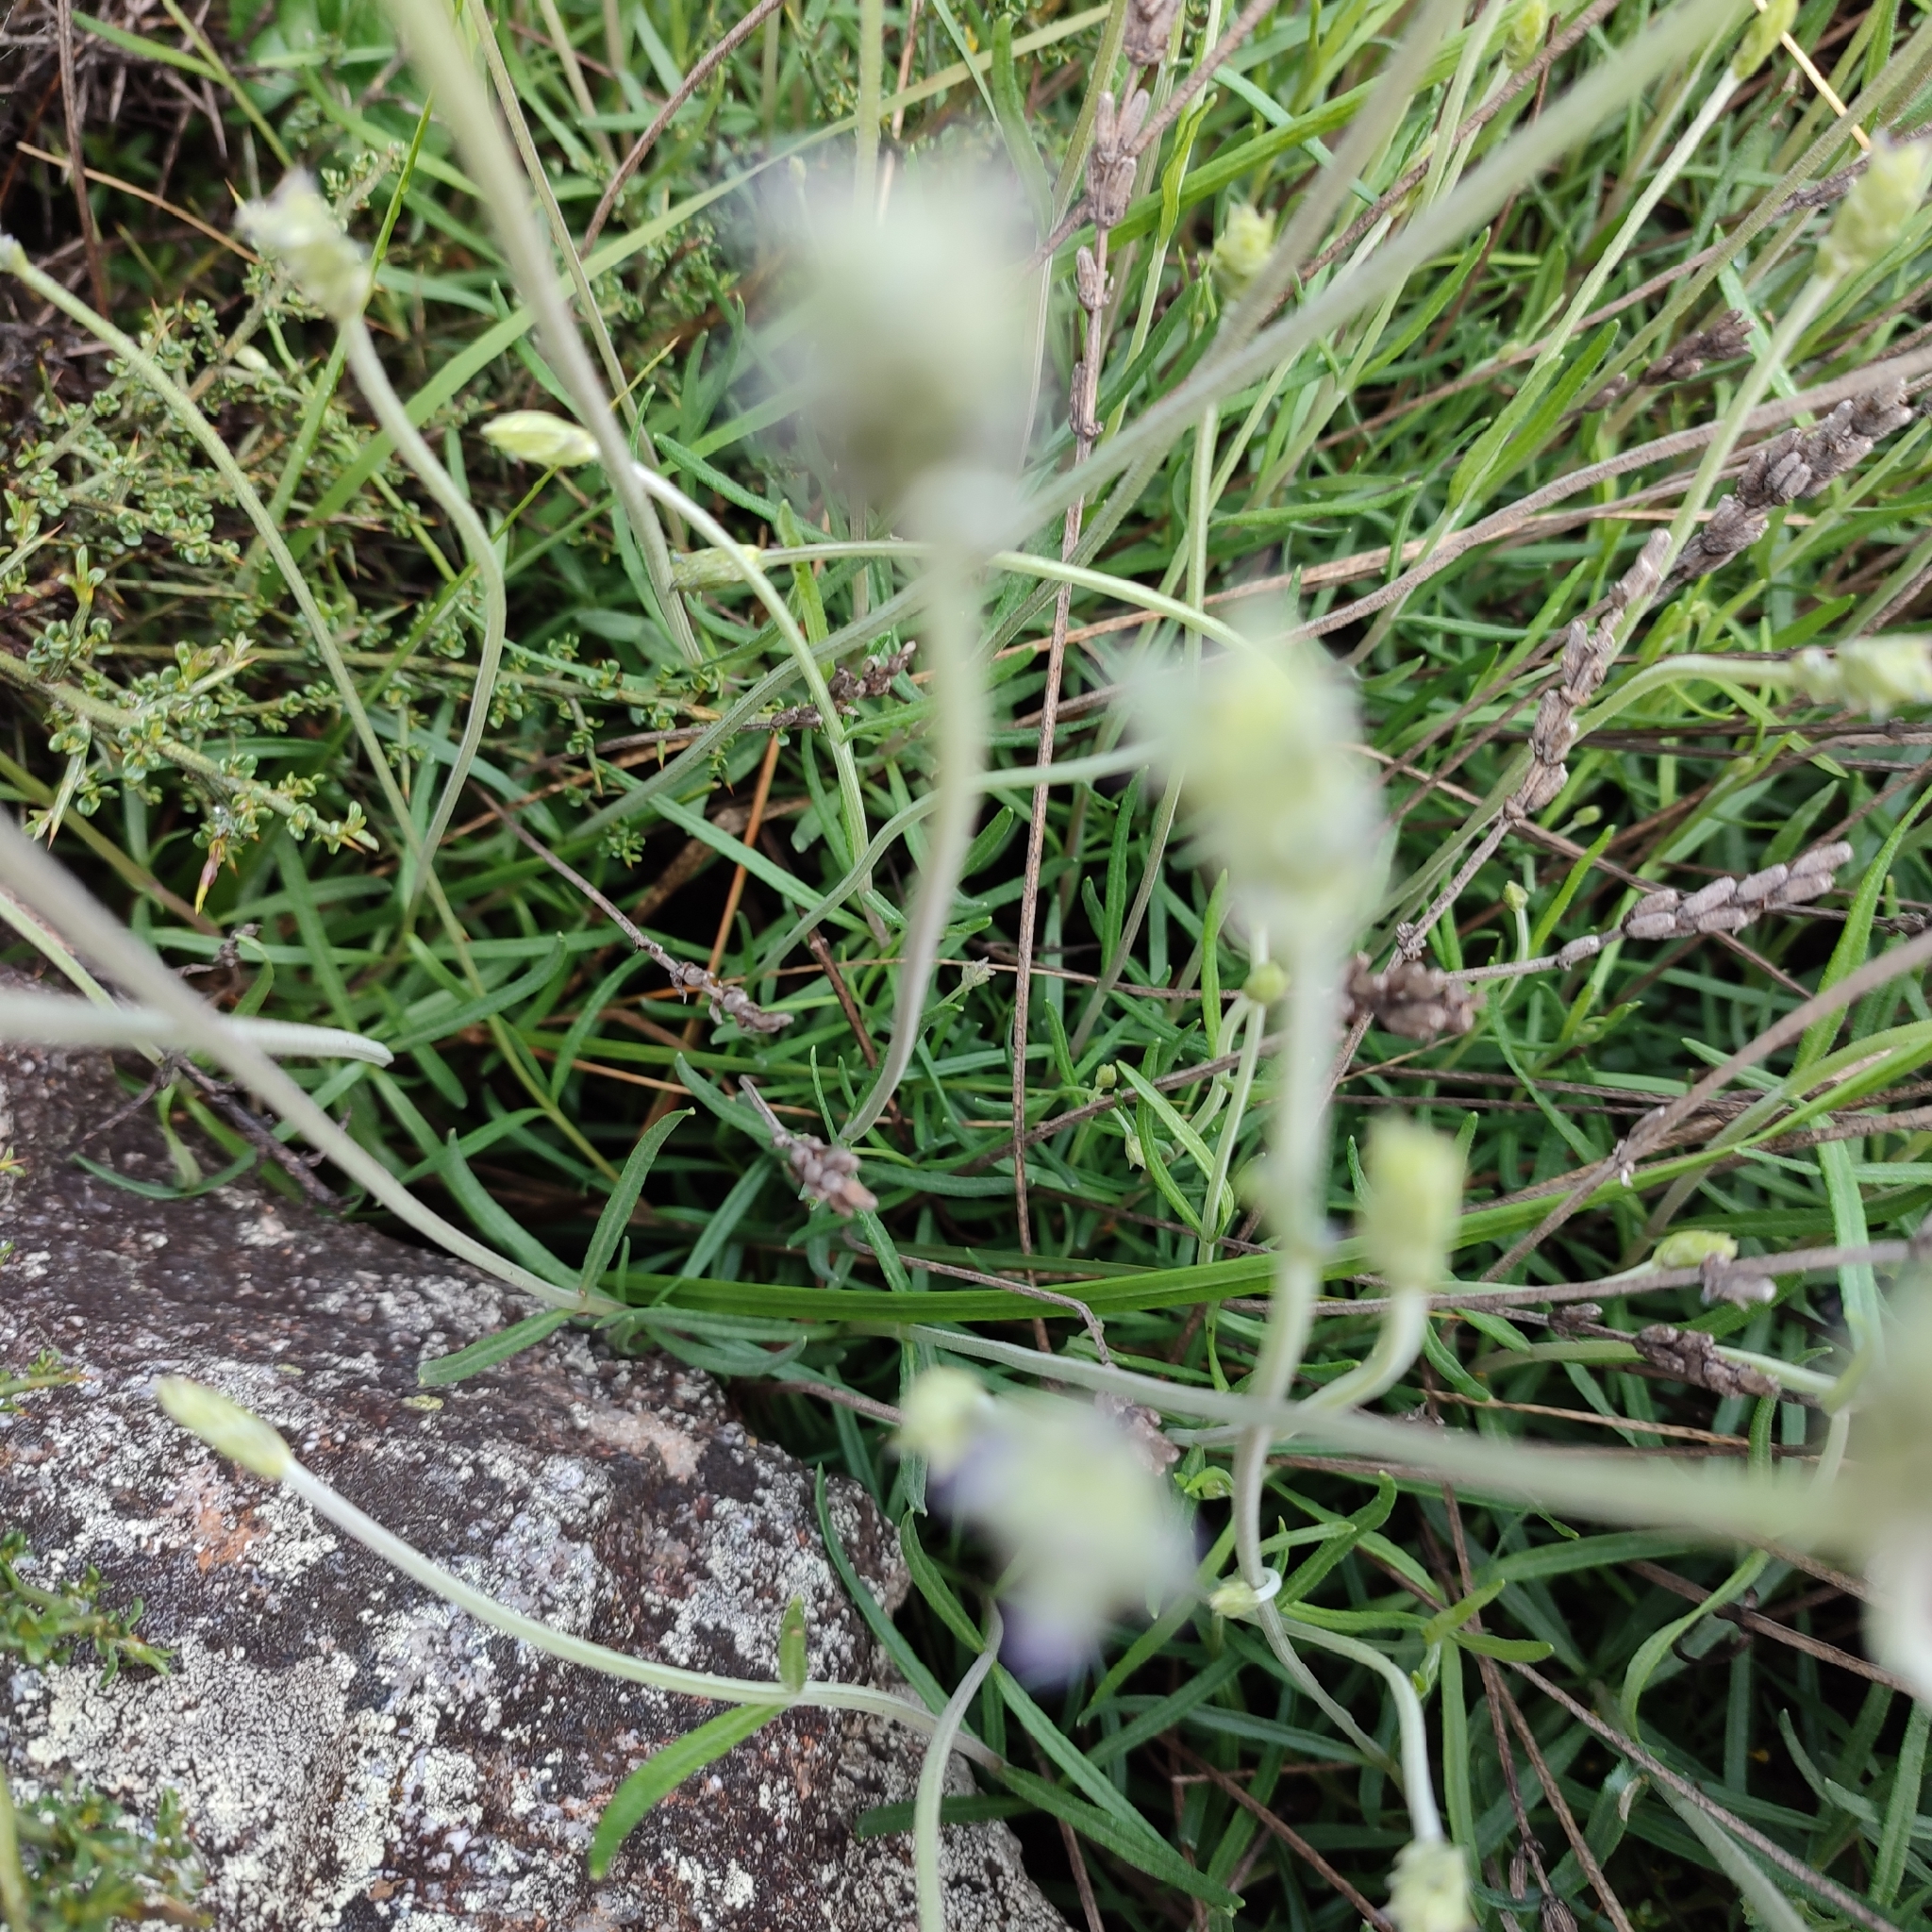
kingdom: Plantae
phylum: Tracheophyta
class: Magnoliopsida
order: Lamiales
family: Lamiaceae
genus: Lavandula
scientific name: Lavandula angustifolia
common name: Garden lavender
